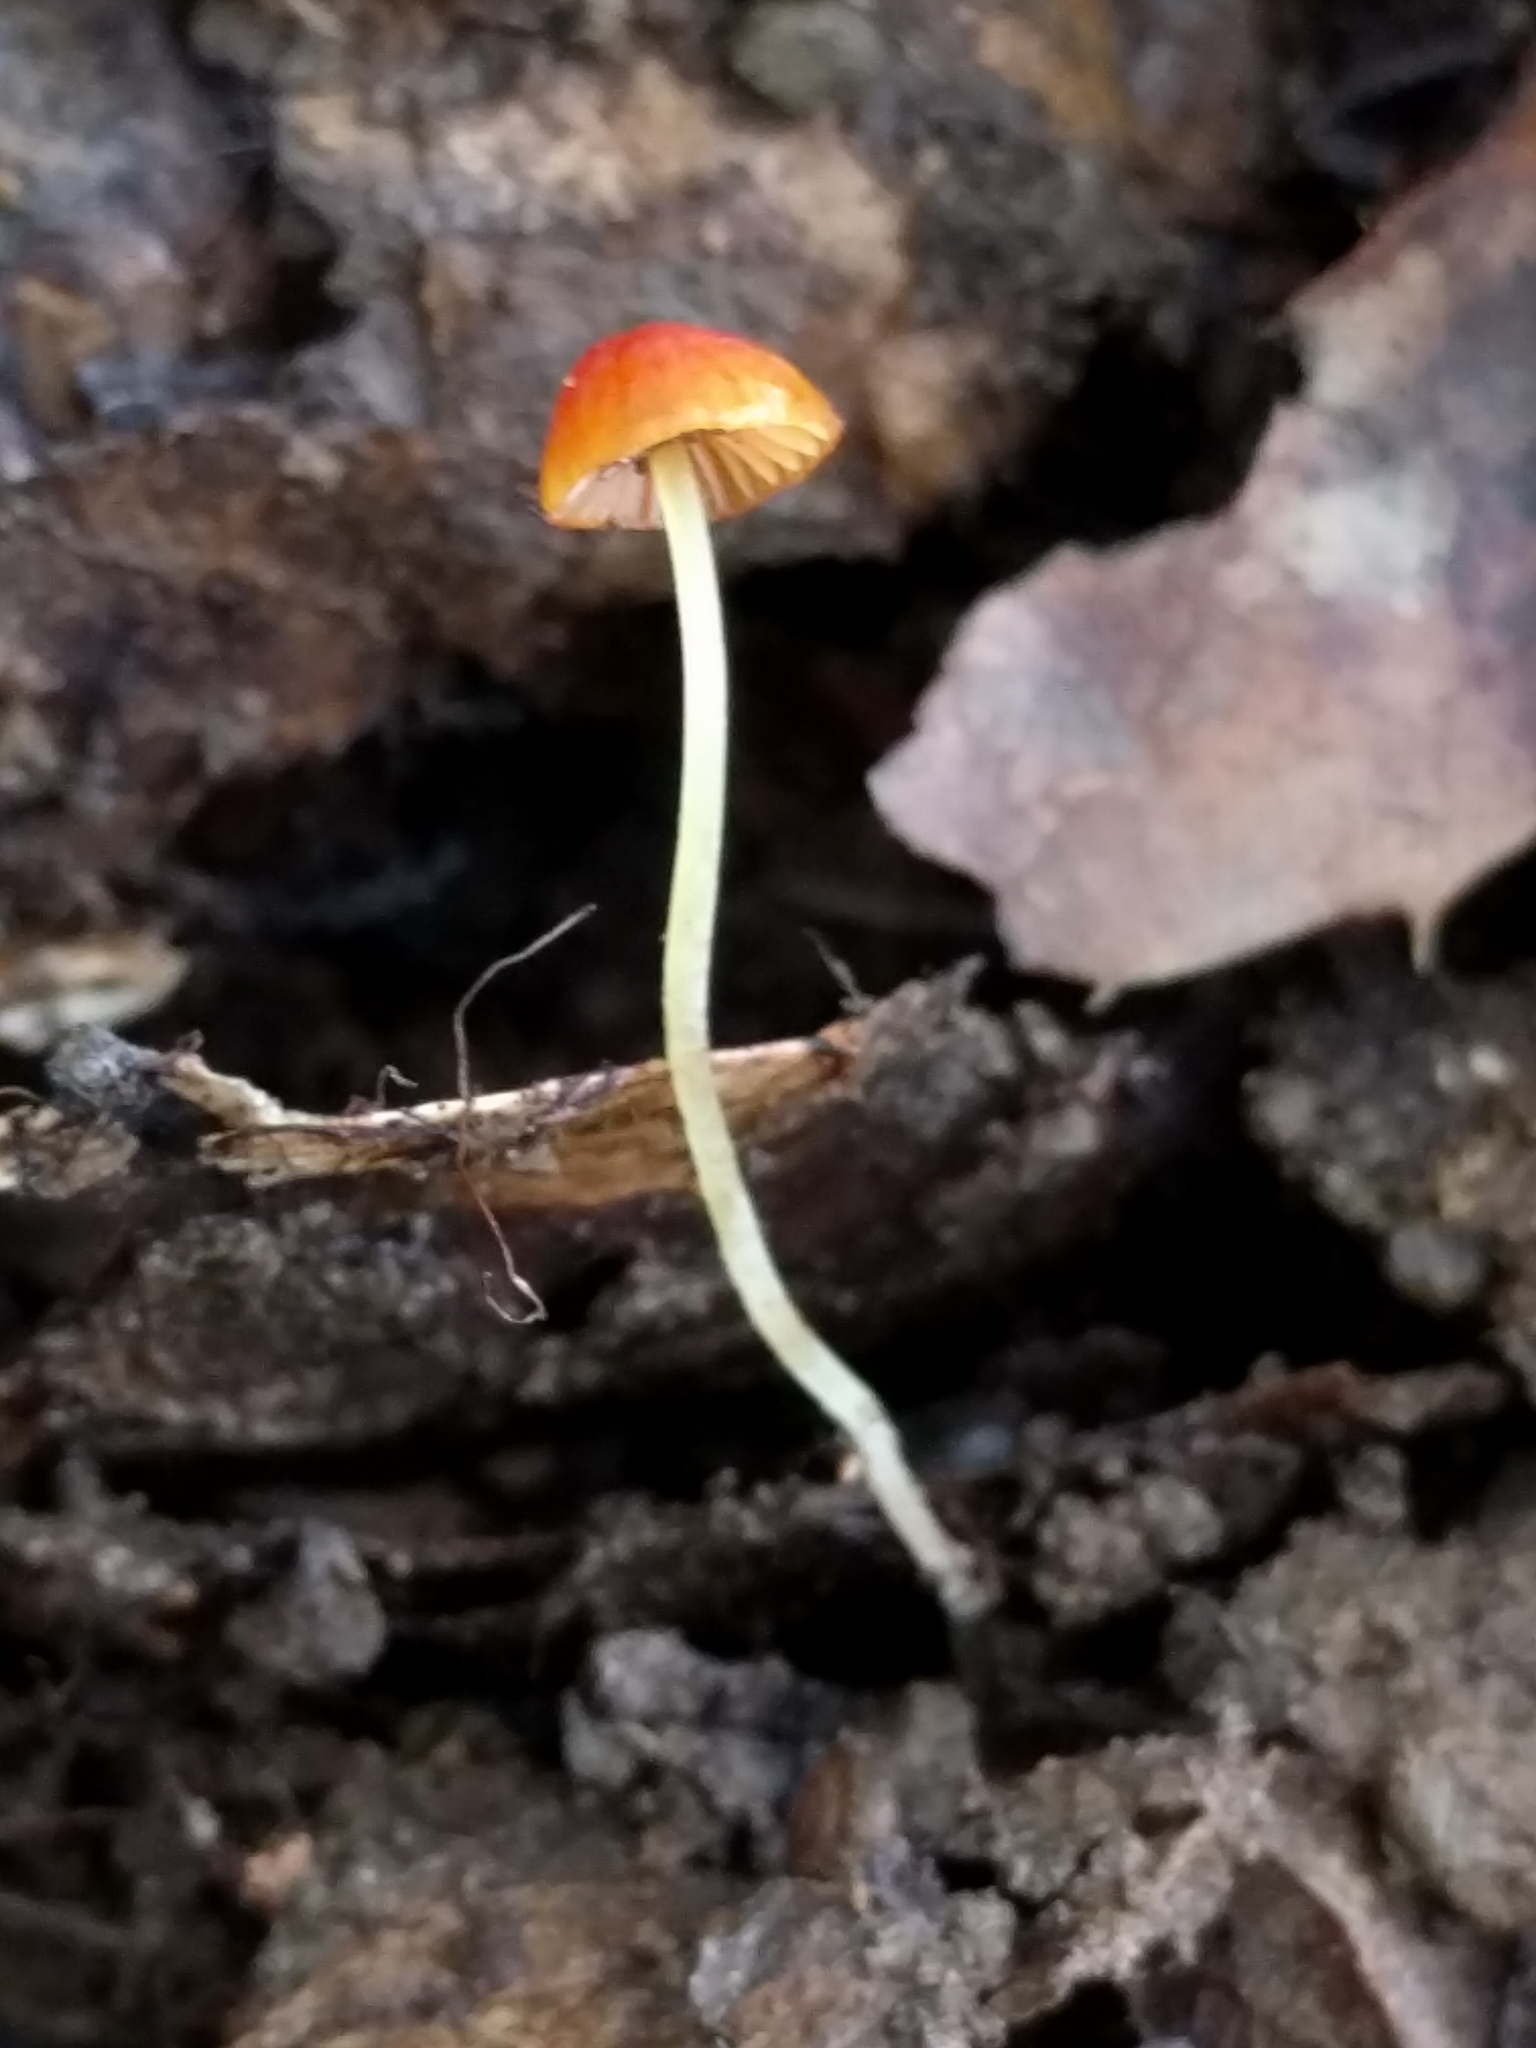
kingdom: Fungi
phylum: Basidiomycota
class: Agaricomycetes
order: Agaricales
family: Mycenaceae
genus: Mycena
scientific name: Mycena acicula
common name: Orange bonnet
